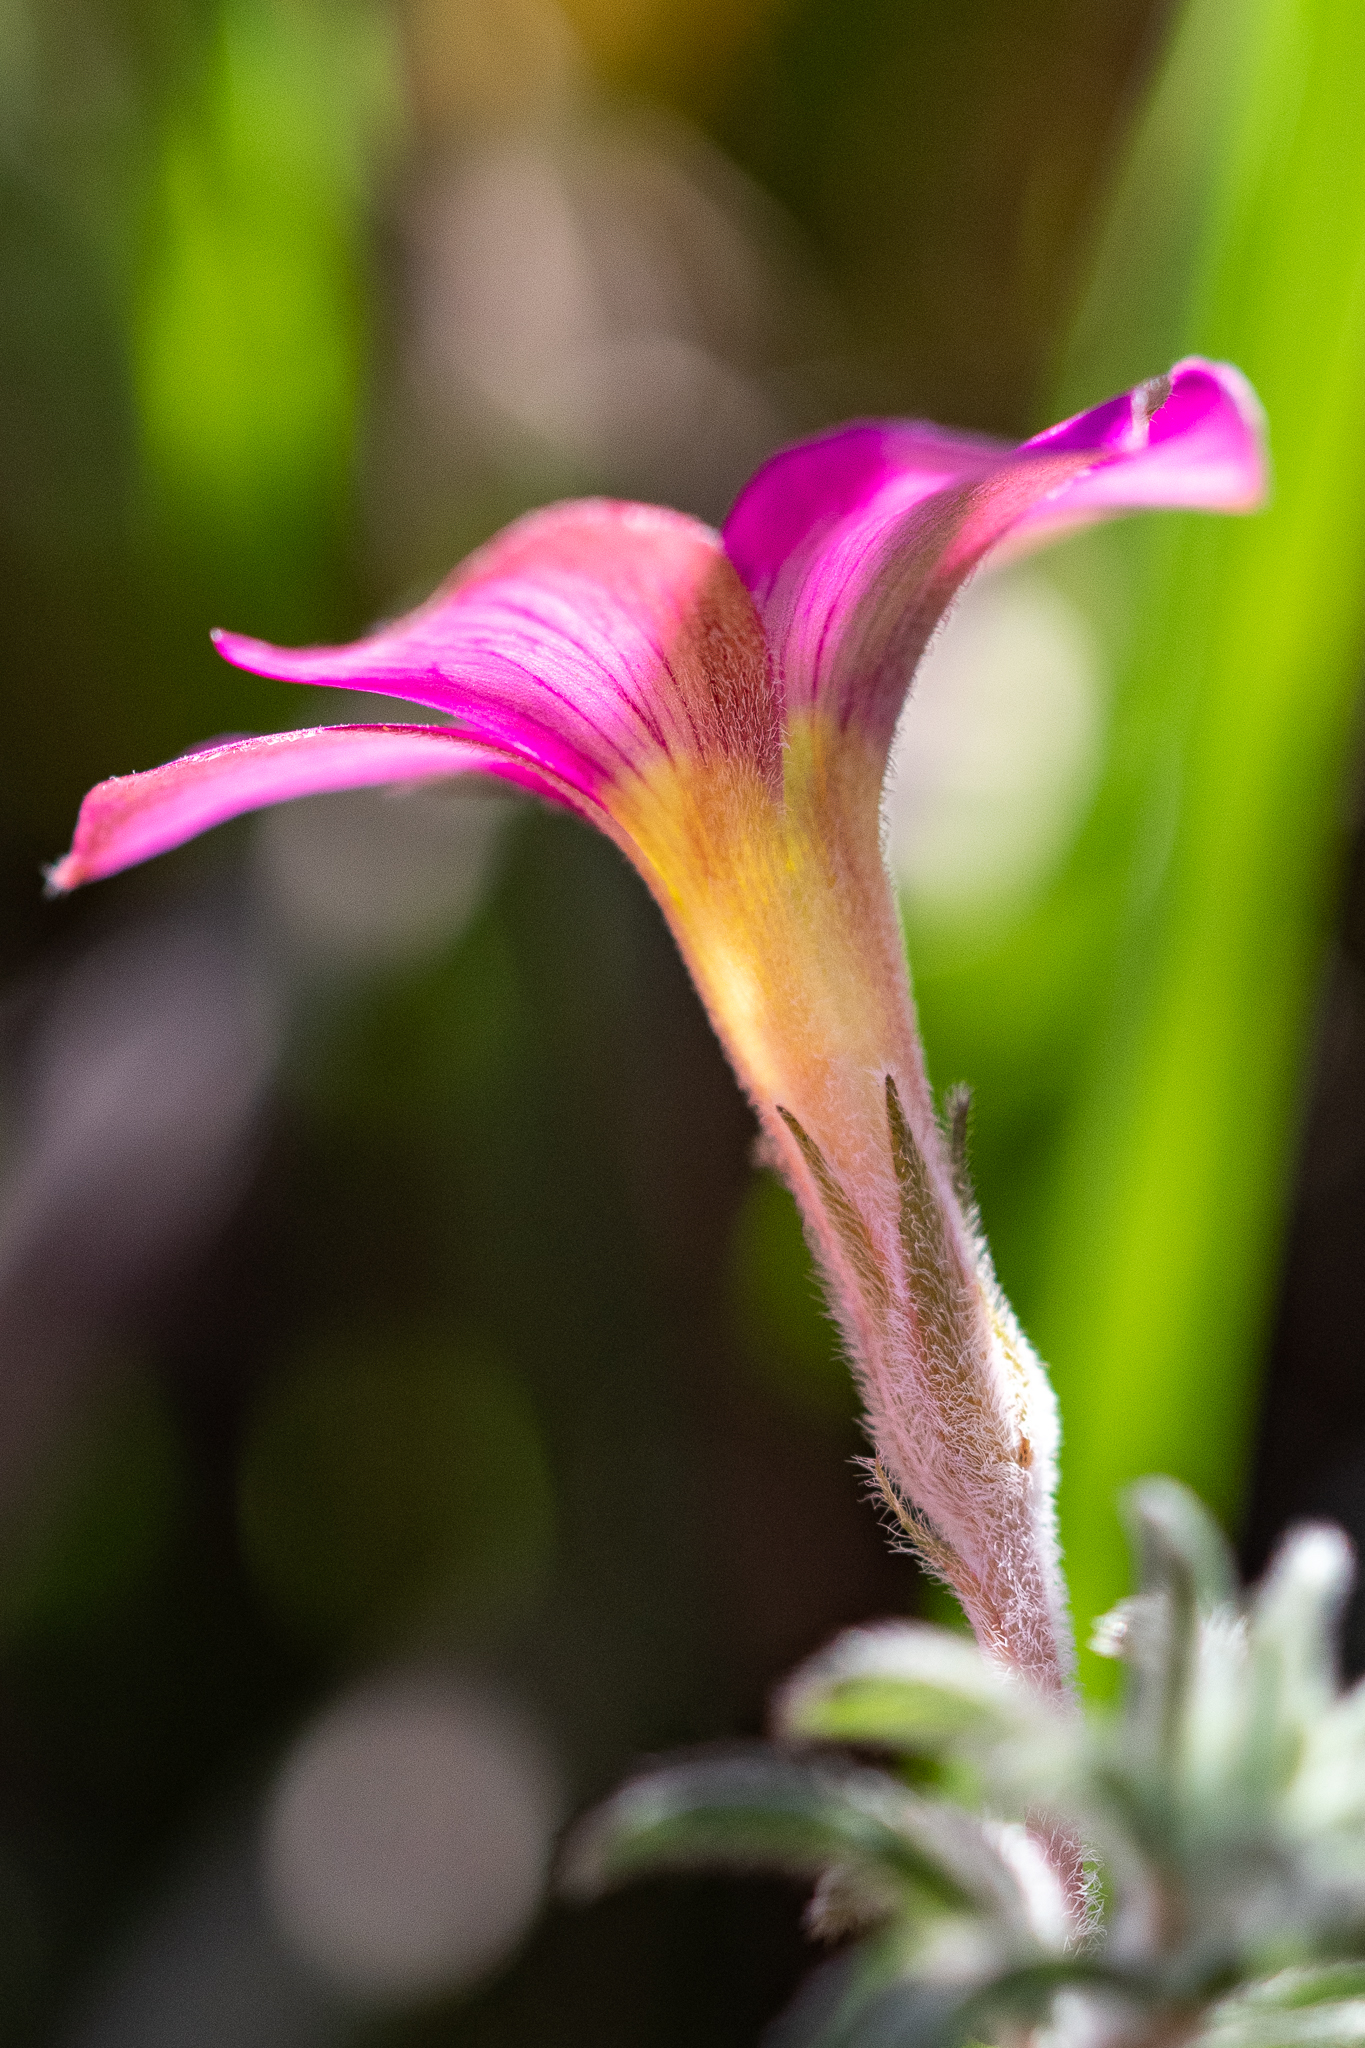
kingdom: Plantae
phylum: Tracheophyta
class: Magnoliopsida
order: Oxalidales
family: Oxalidaceae
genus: Oxalis
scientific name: Oxalis hirta
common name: Tropical woodsorrel
